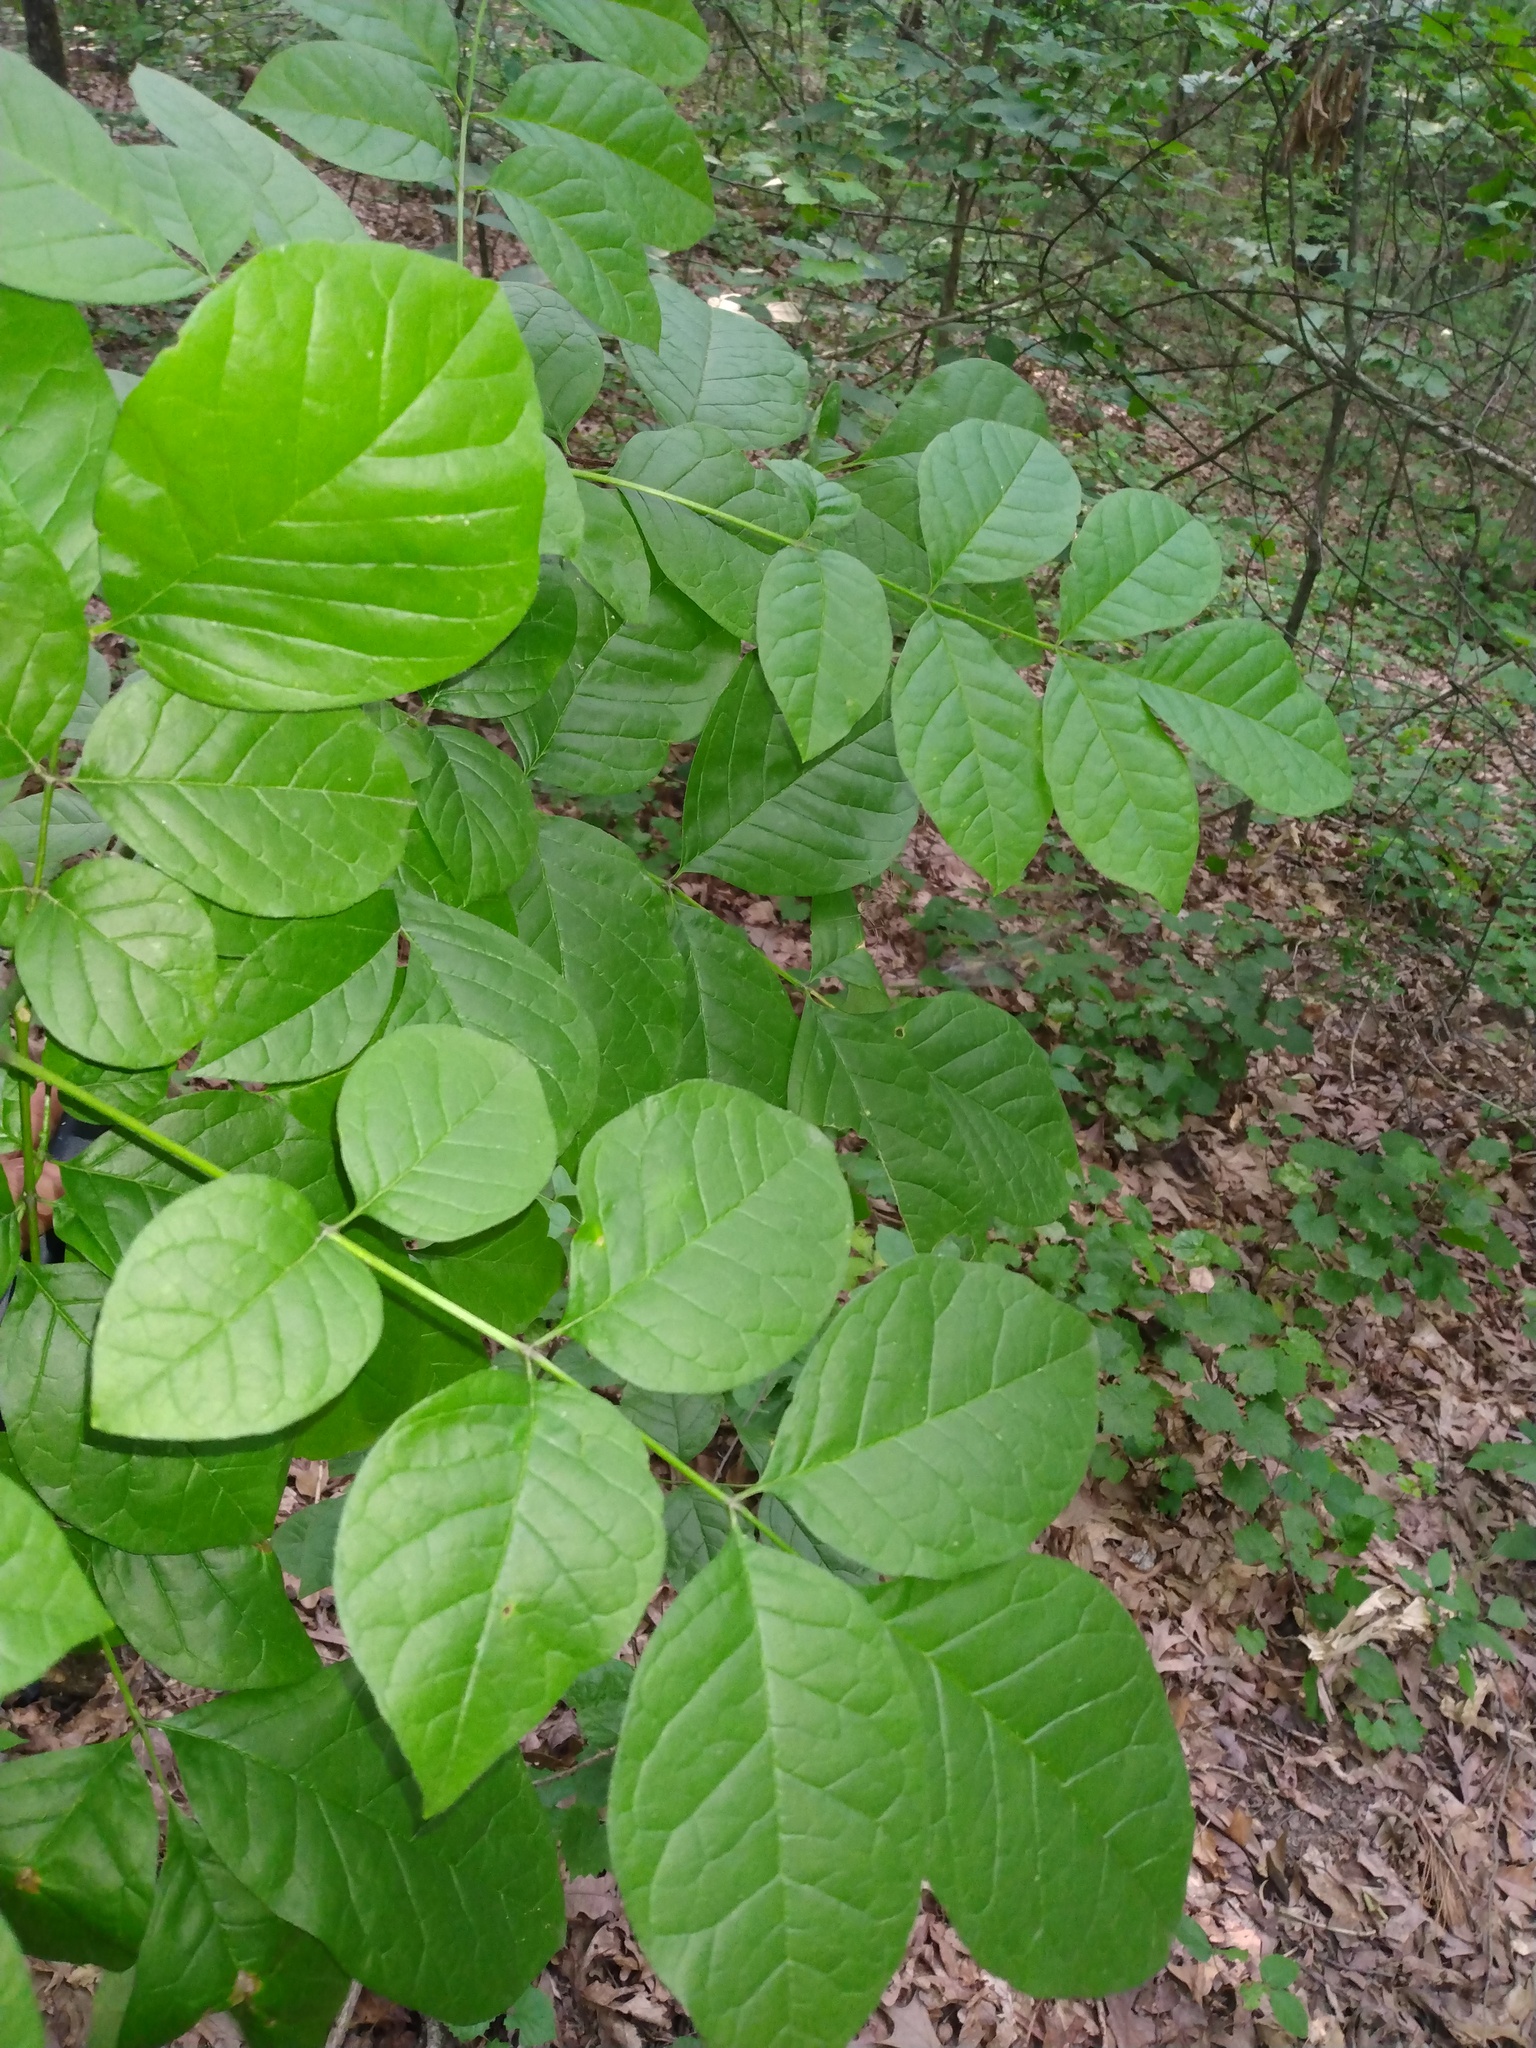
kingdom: Plantae
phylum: Tracheophyta
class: Magnoliopsida
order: Lamiales
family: Oleaceae
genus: Fraxinus
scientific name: Fraxinus americana
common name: White ash
